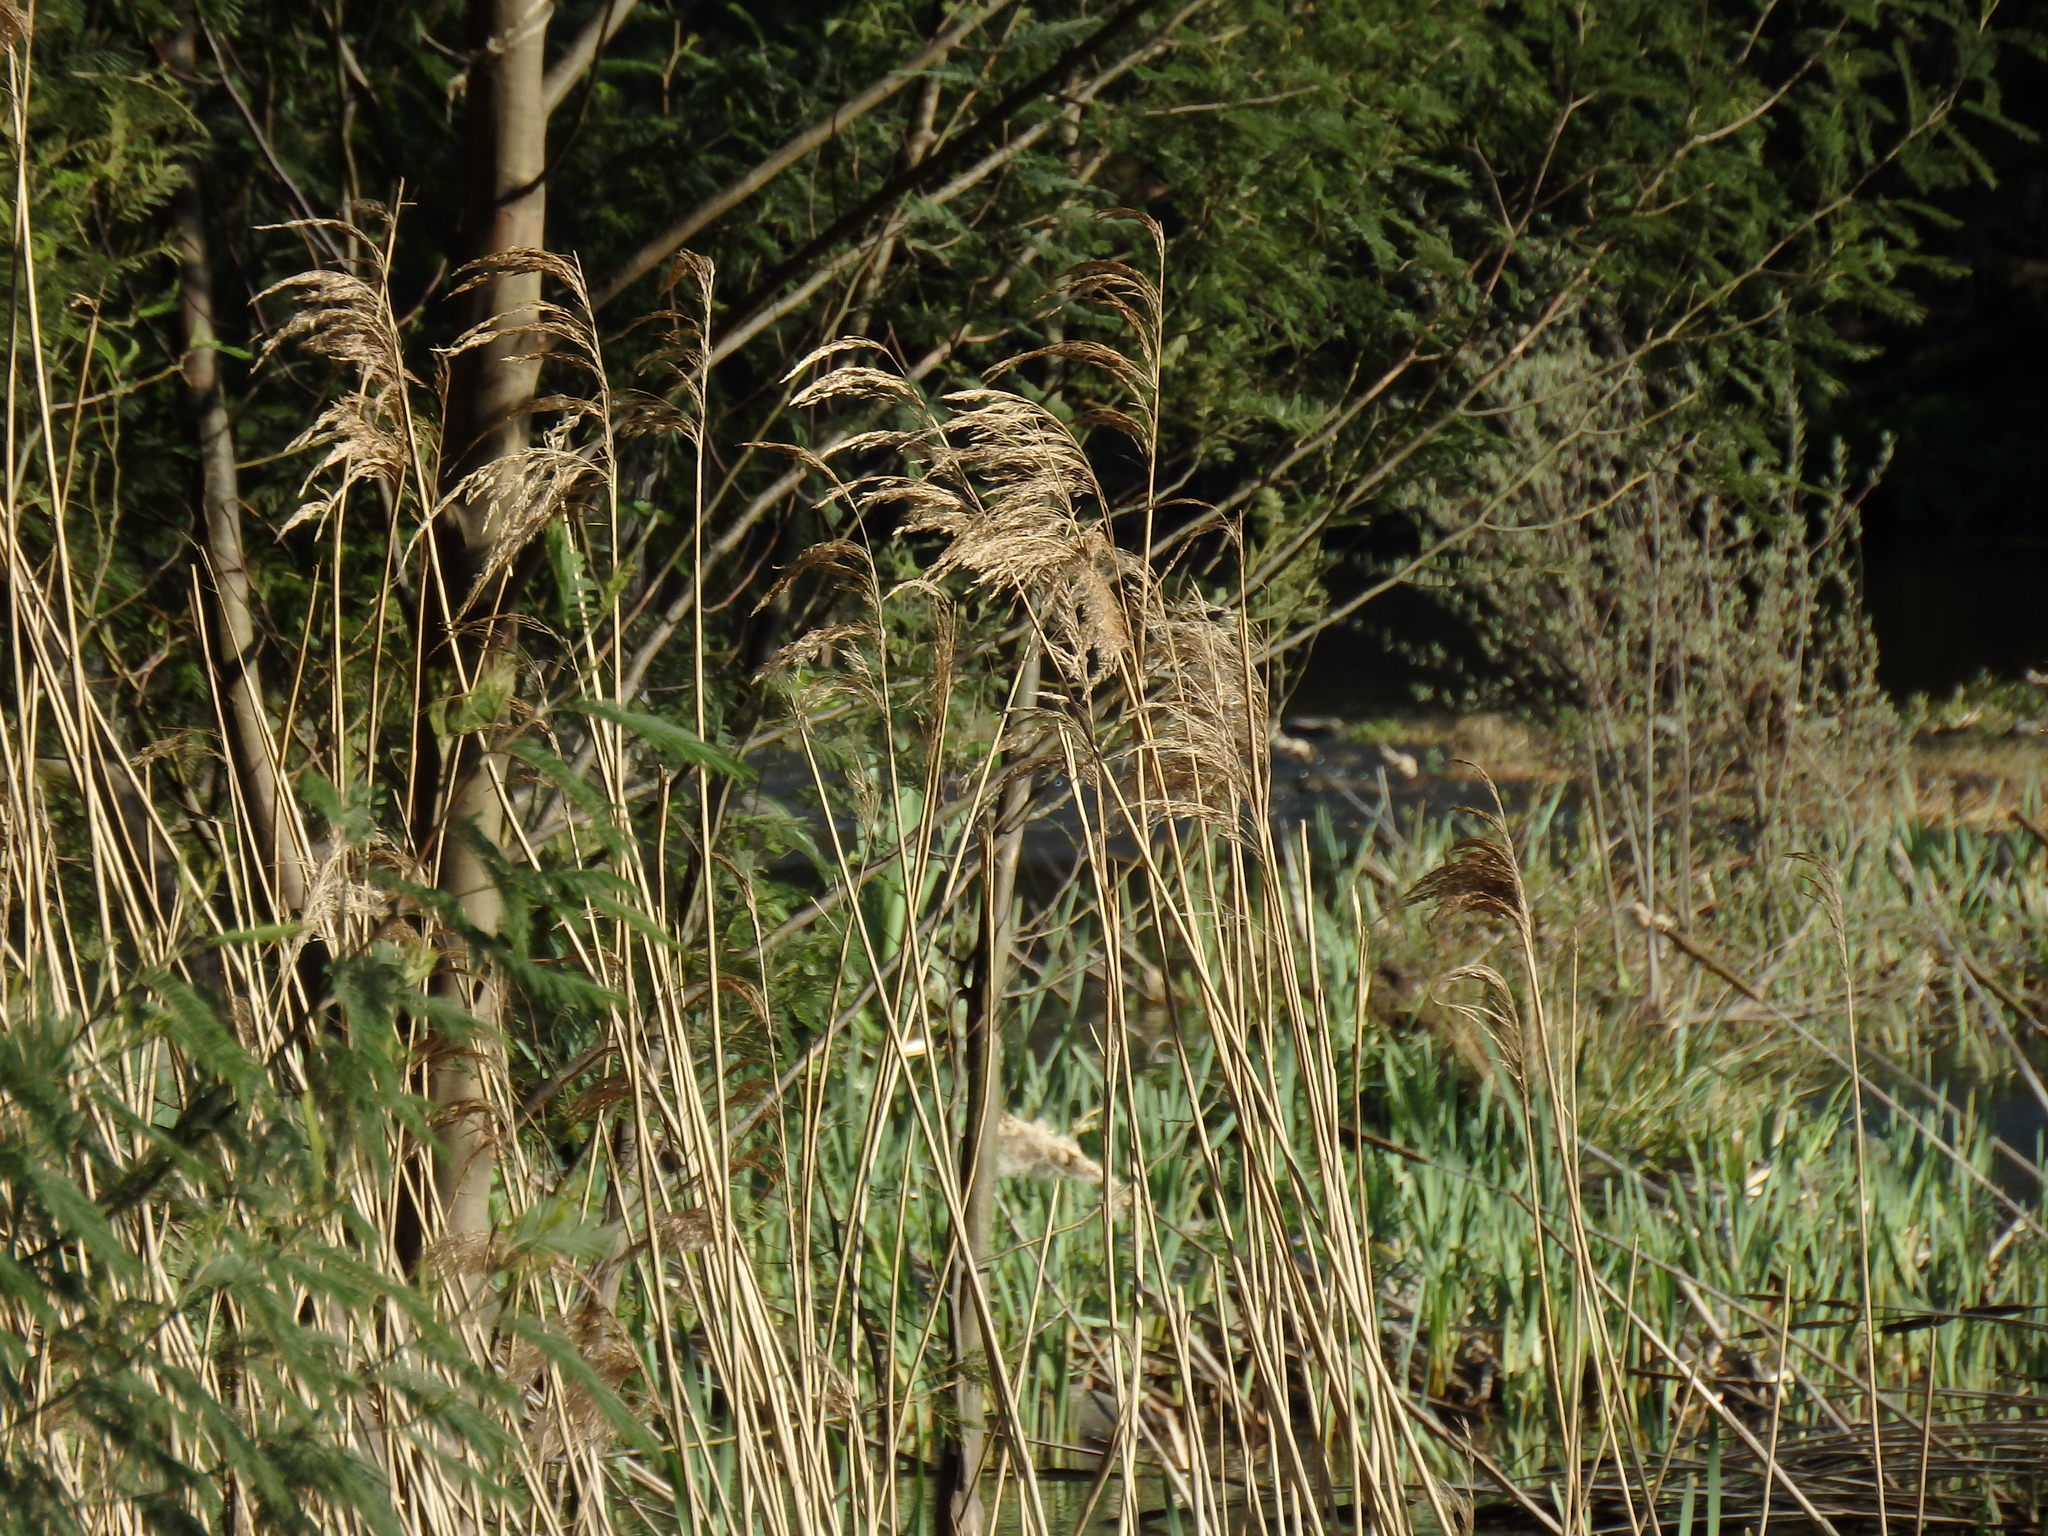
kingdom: Plantae
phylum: Tracheophyta
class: Liliopsida
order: Poales
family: Poaceae
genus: Phragmites
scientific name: Phragmites australis
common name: Common reed
